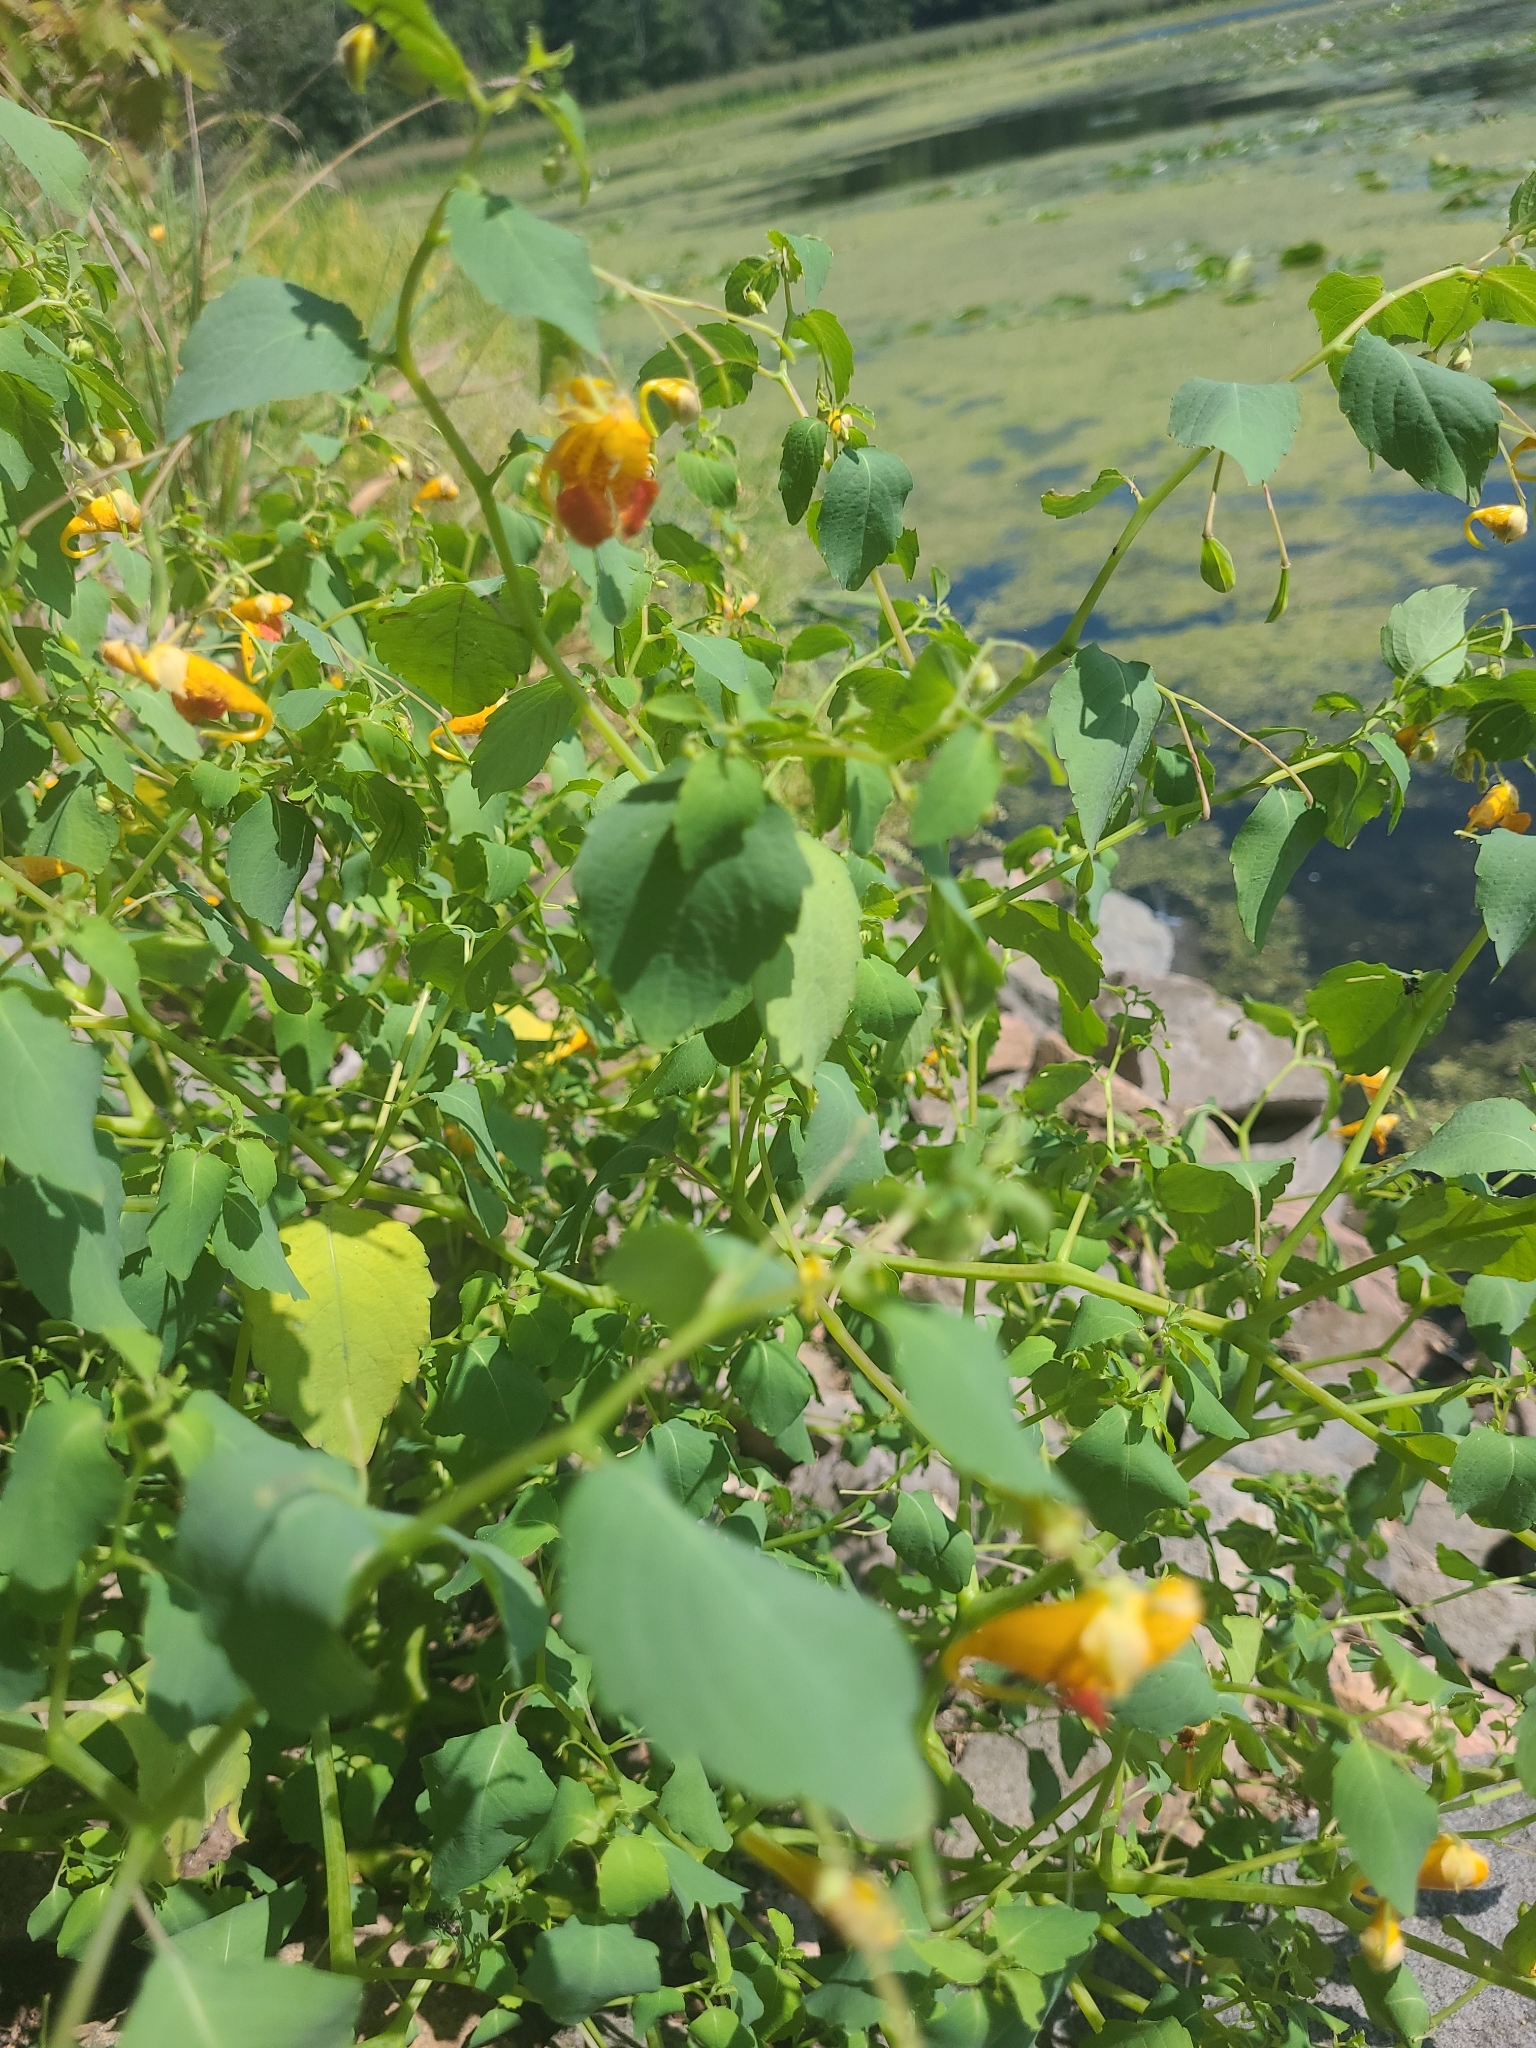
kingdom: Plantae
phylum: Tracheophyta
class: Magnoliopsida
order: Ericales
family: Balsaminaceae
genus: Impatiens
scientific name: Impatiens capensis
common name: Orange balsam
